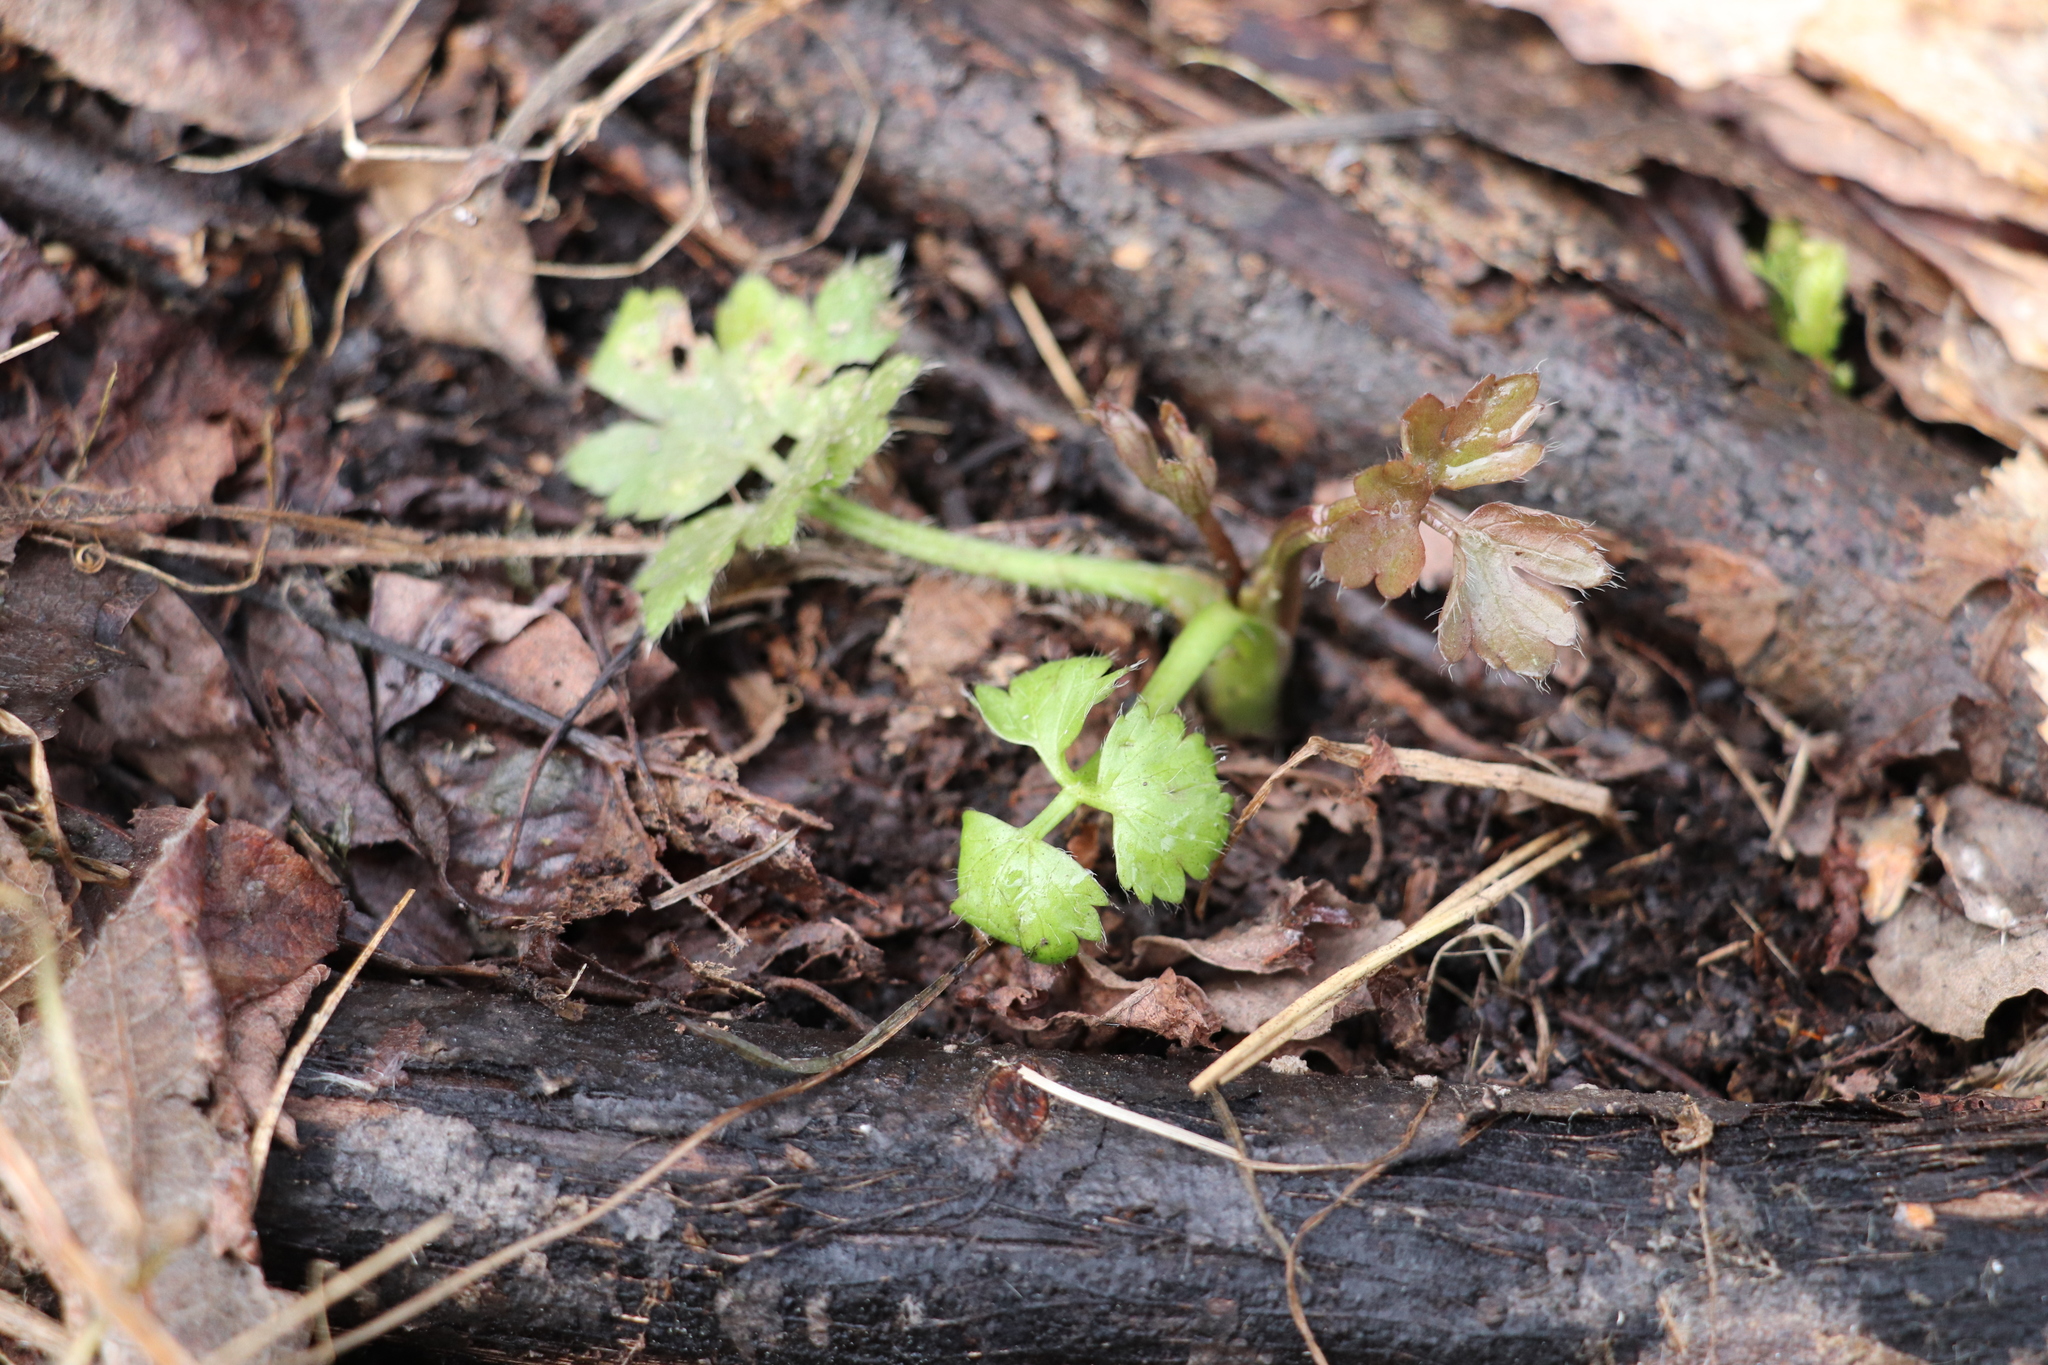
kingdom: Plantae
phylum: Tracheophyta
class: Magnoliopsida
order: Ranunculales
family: Ranunculaceae
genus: Ranunculus
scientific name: Ranunculus repens
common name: Creeping buttercup
